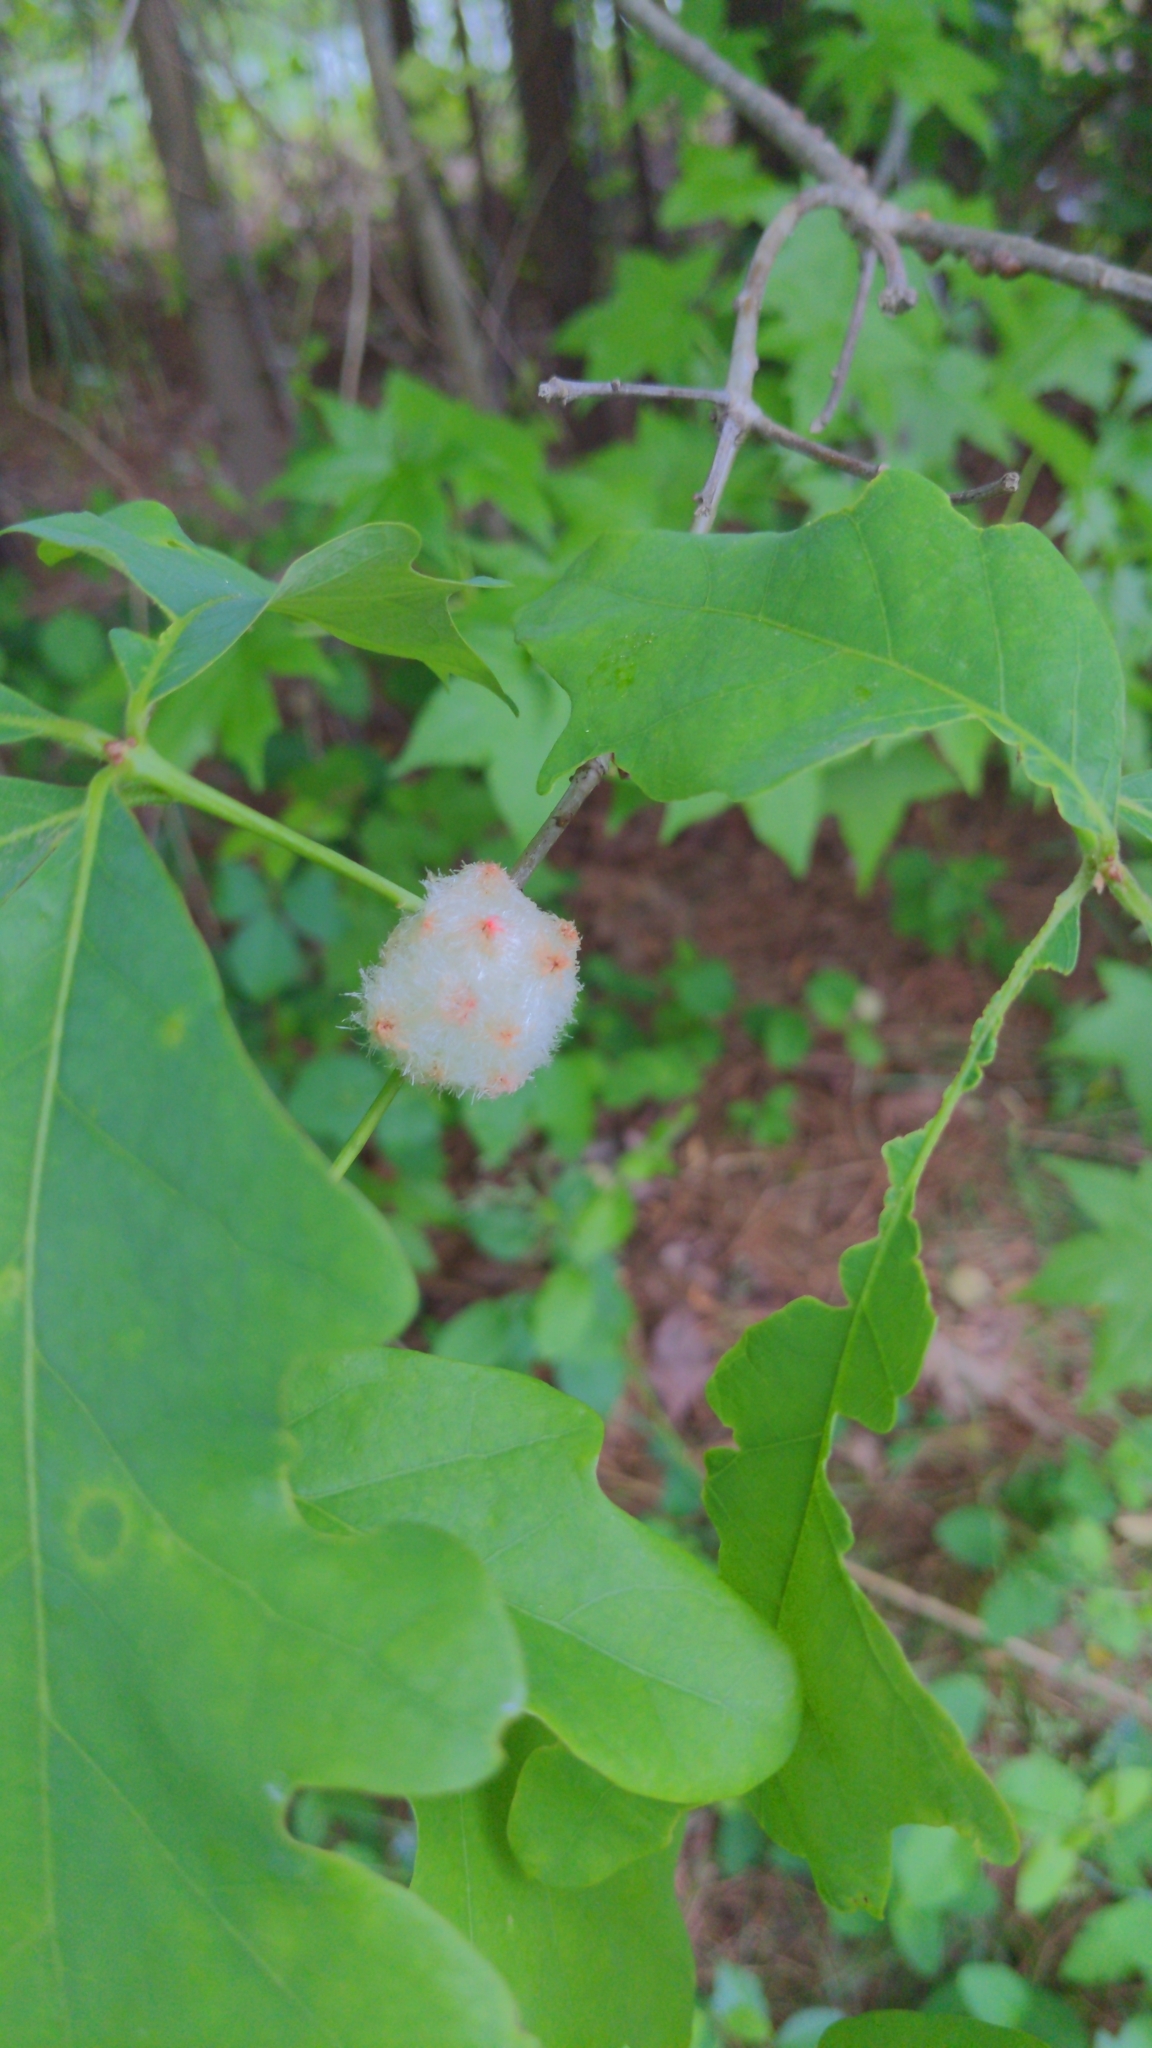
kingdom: Animalia
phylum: Arthropoda
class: Insecta
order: Hymenoptera
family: Cynipidae
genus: Callirhytis
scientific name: Callirhytis
